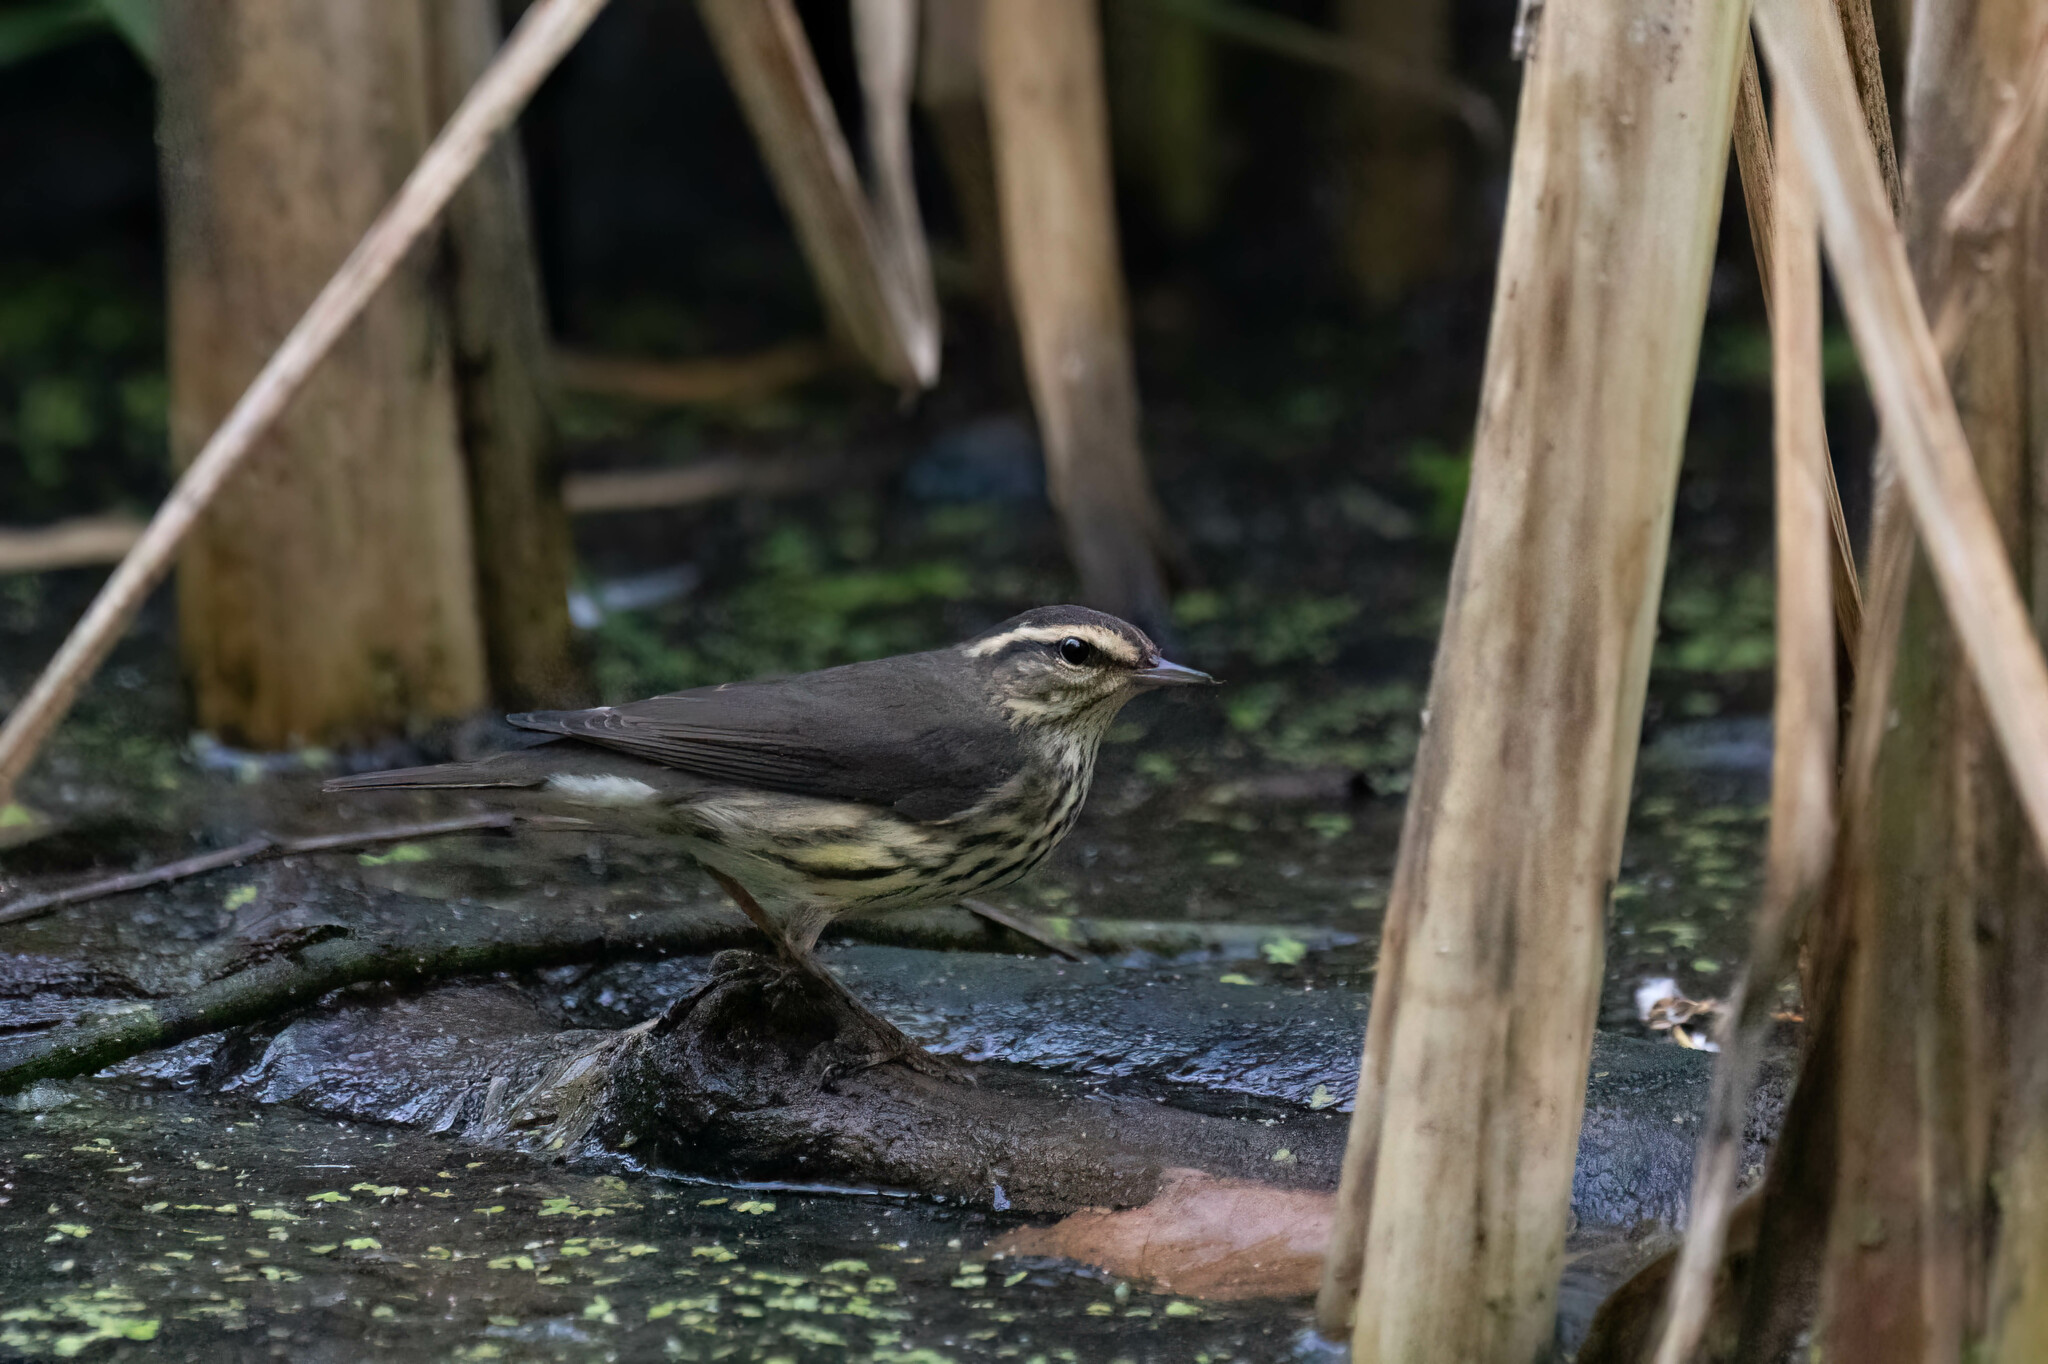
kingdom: Animalia
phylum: Chordata
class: Aves
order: Passeriformes
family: Parulidae
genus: Parkesia
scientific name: Parkesia noveboracensis
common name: Northern waterthrush
